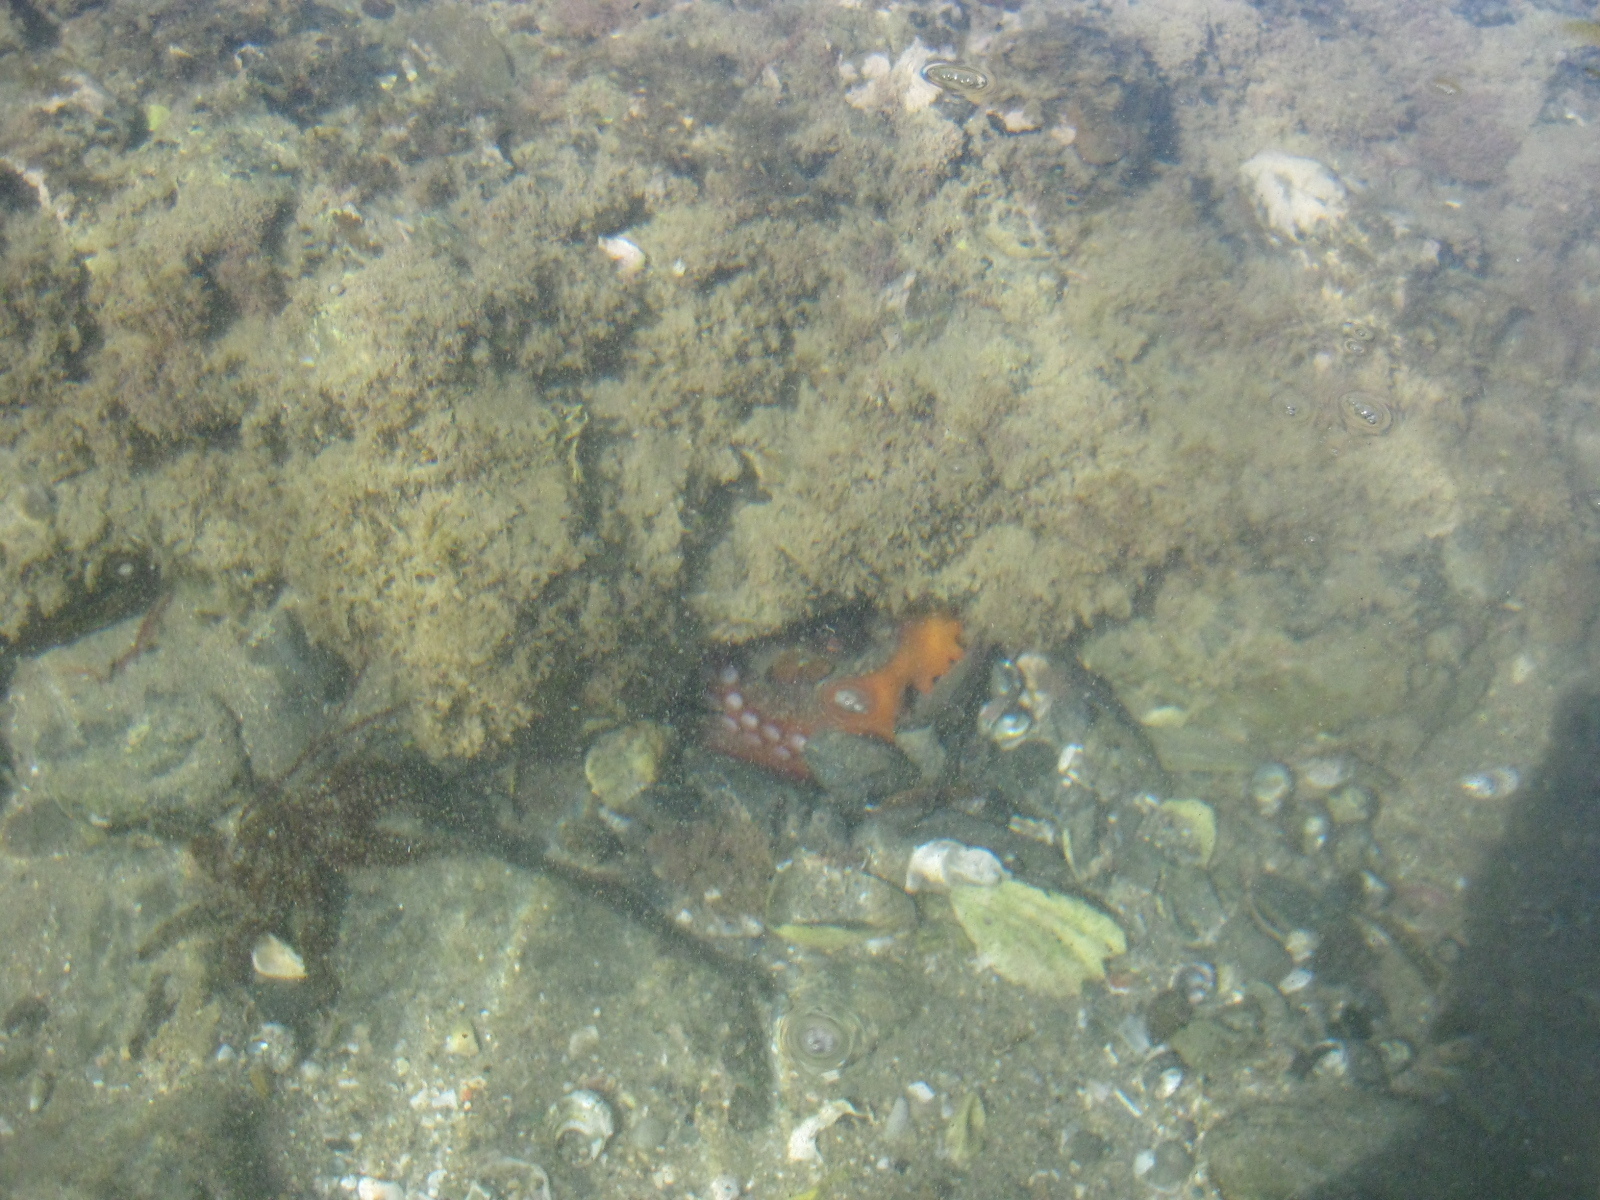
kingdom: Animalia
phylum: Mollusca
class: Cephalopoda
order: Octopoda
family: Octopodidae
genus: Octopus
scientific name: Octopus tetricus
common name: Sydney octopus
